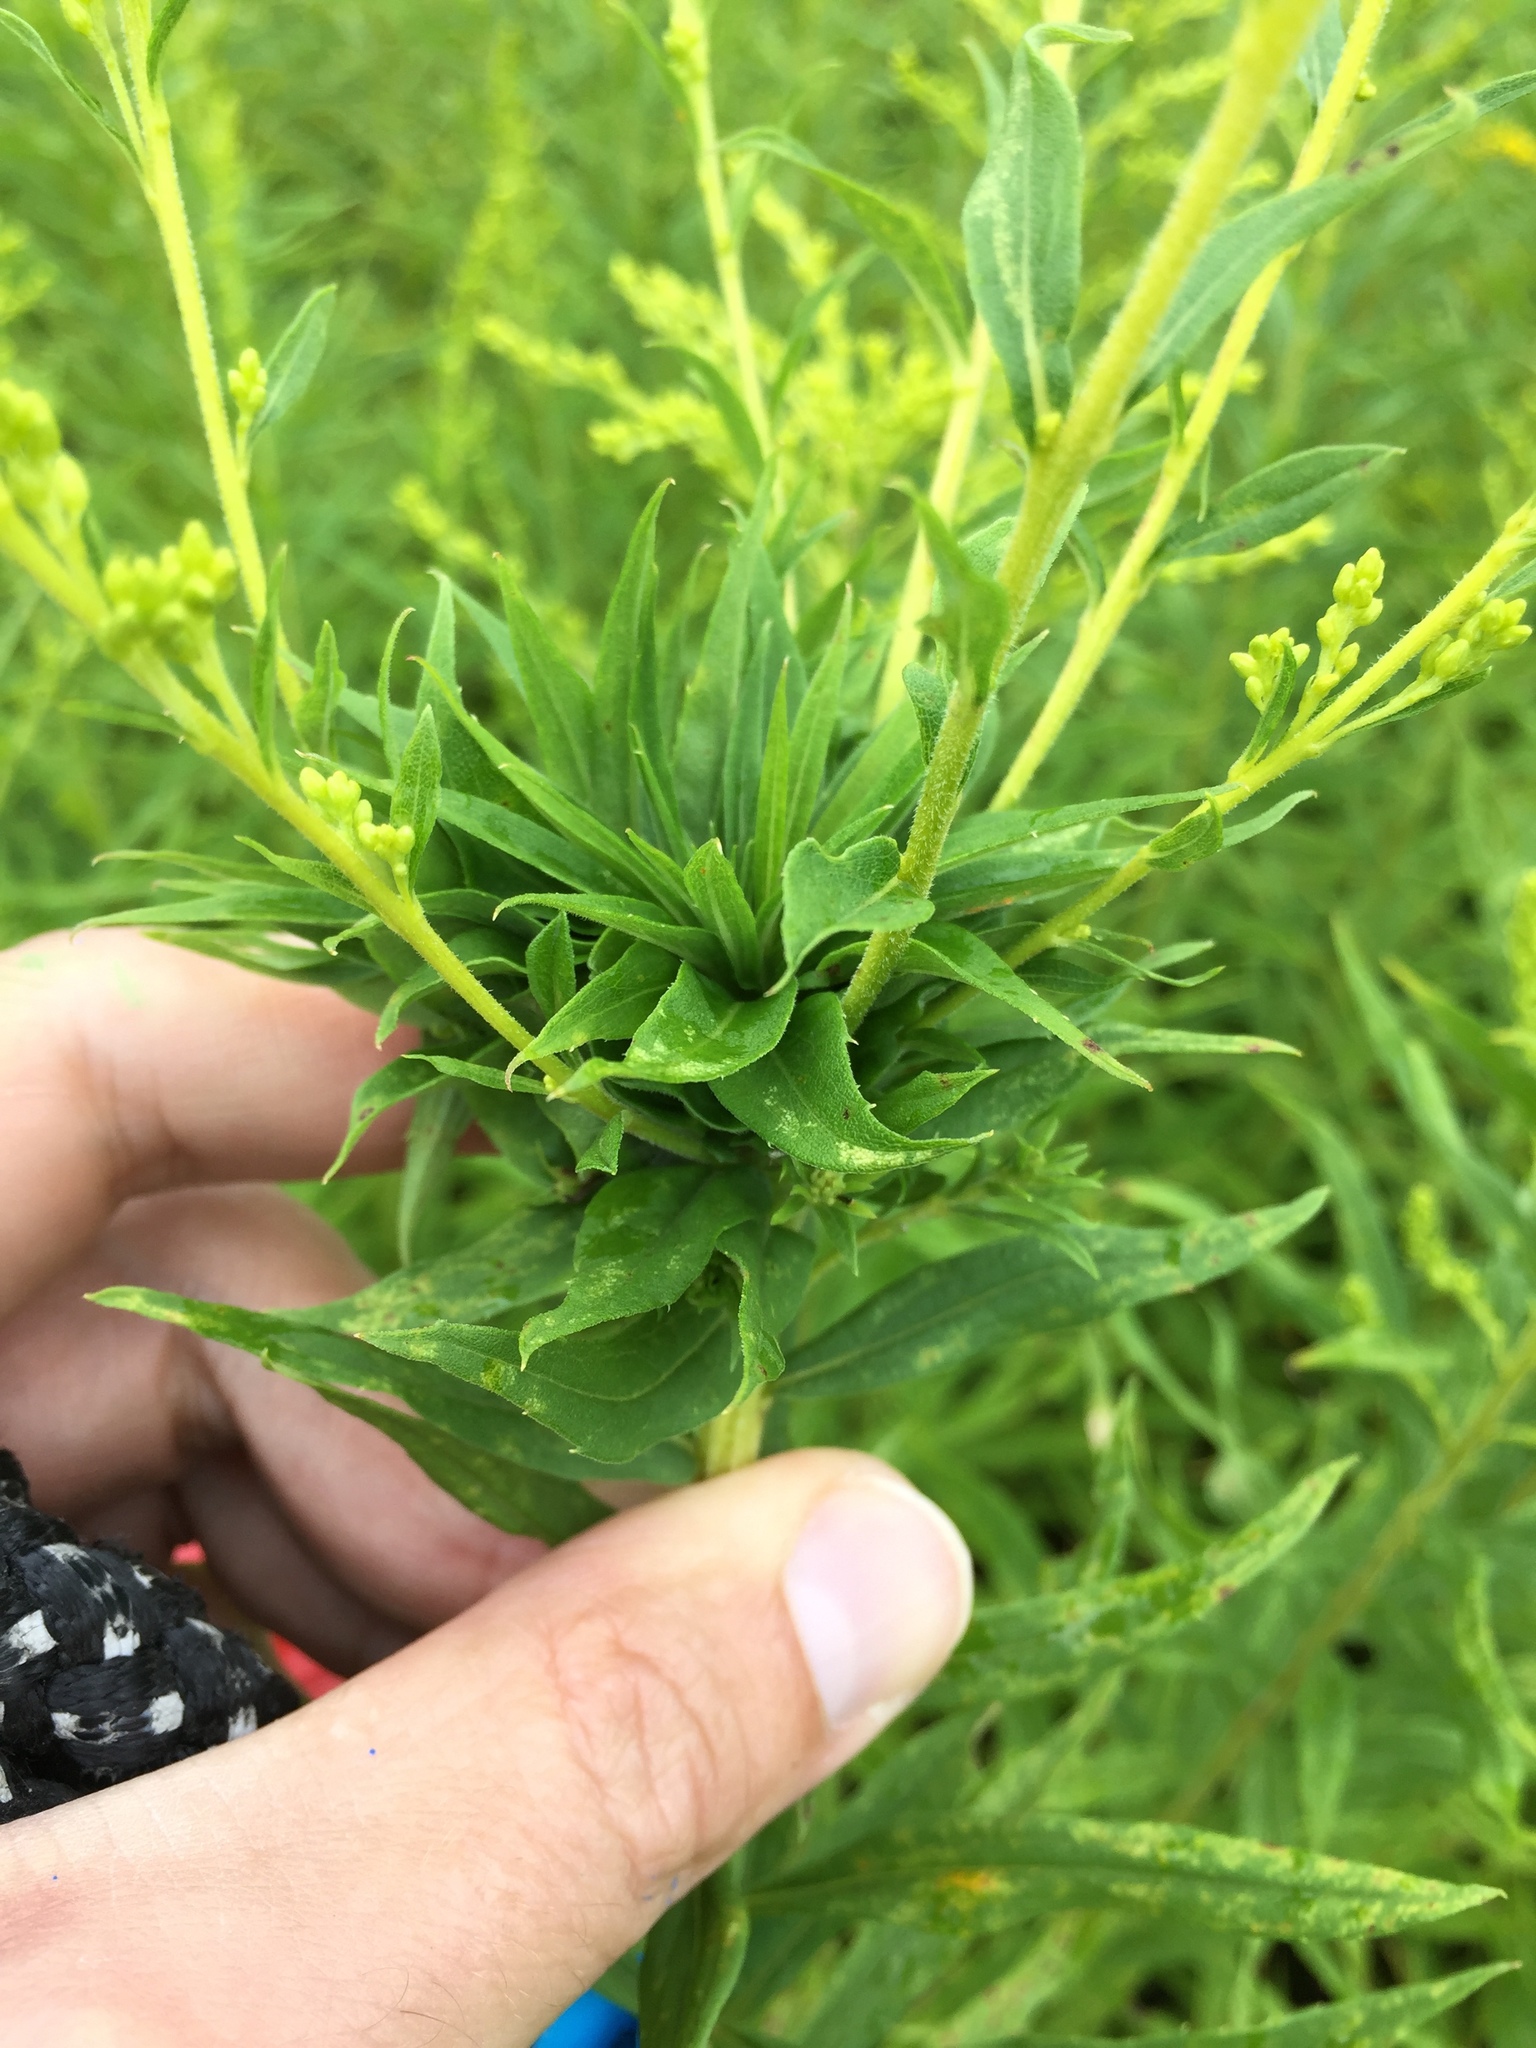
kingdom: Animalia
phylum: Arthropoda
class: Insecta
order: Diptera
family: Cecidomyiidae
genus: Rhopalomyia
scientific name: Rhopalomyia solidaginis
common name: Goldenrod bunch gall midge
